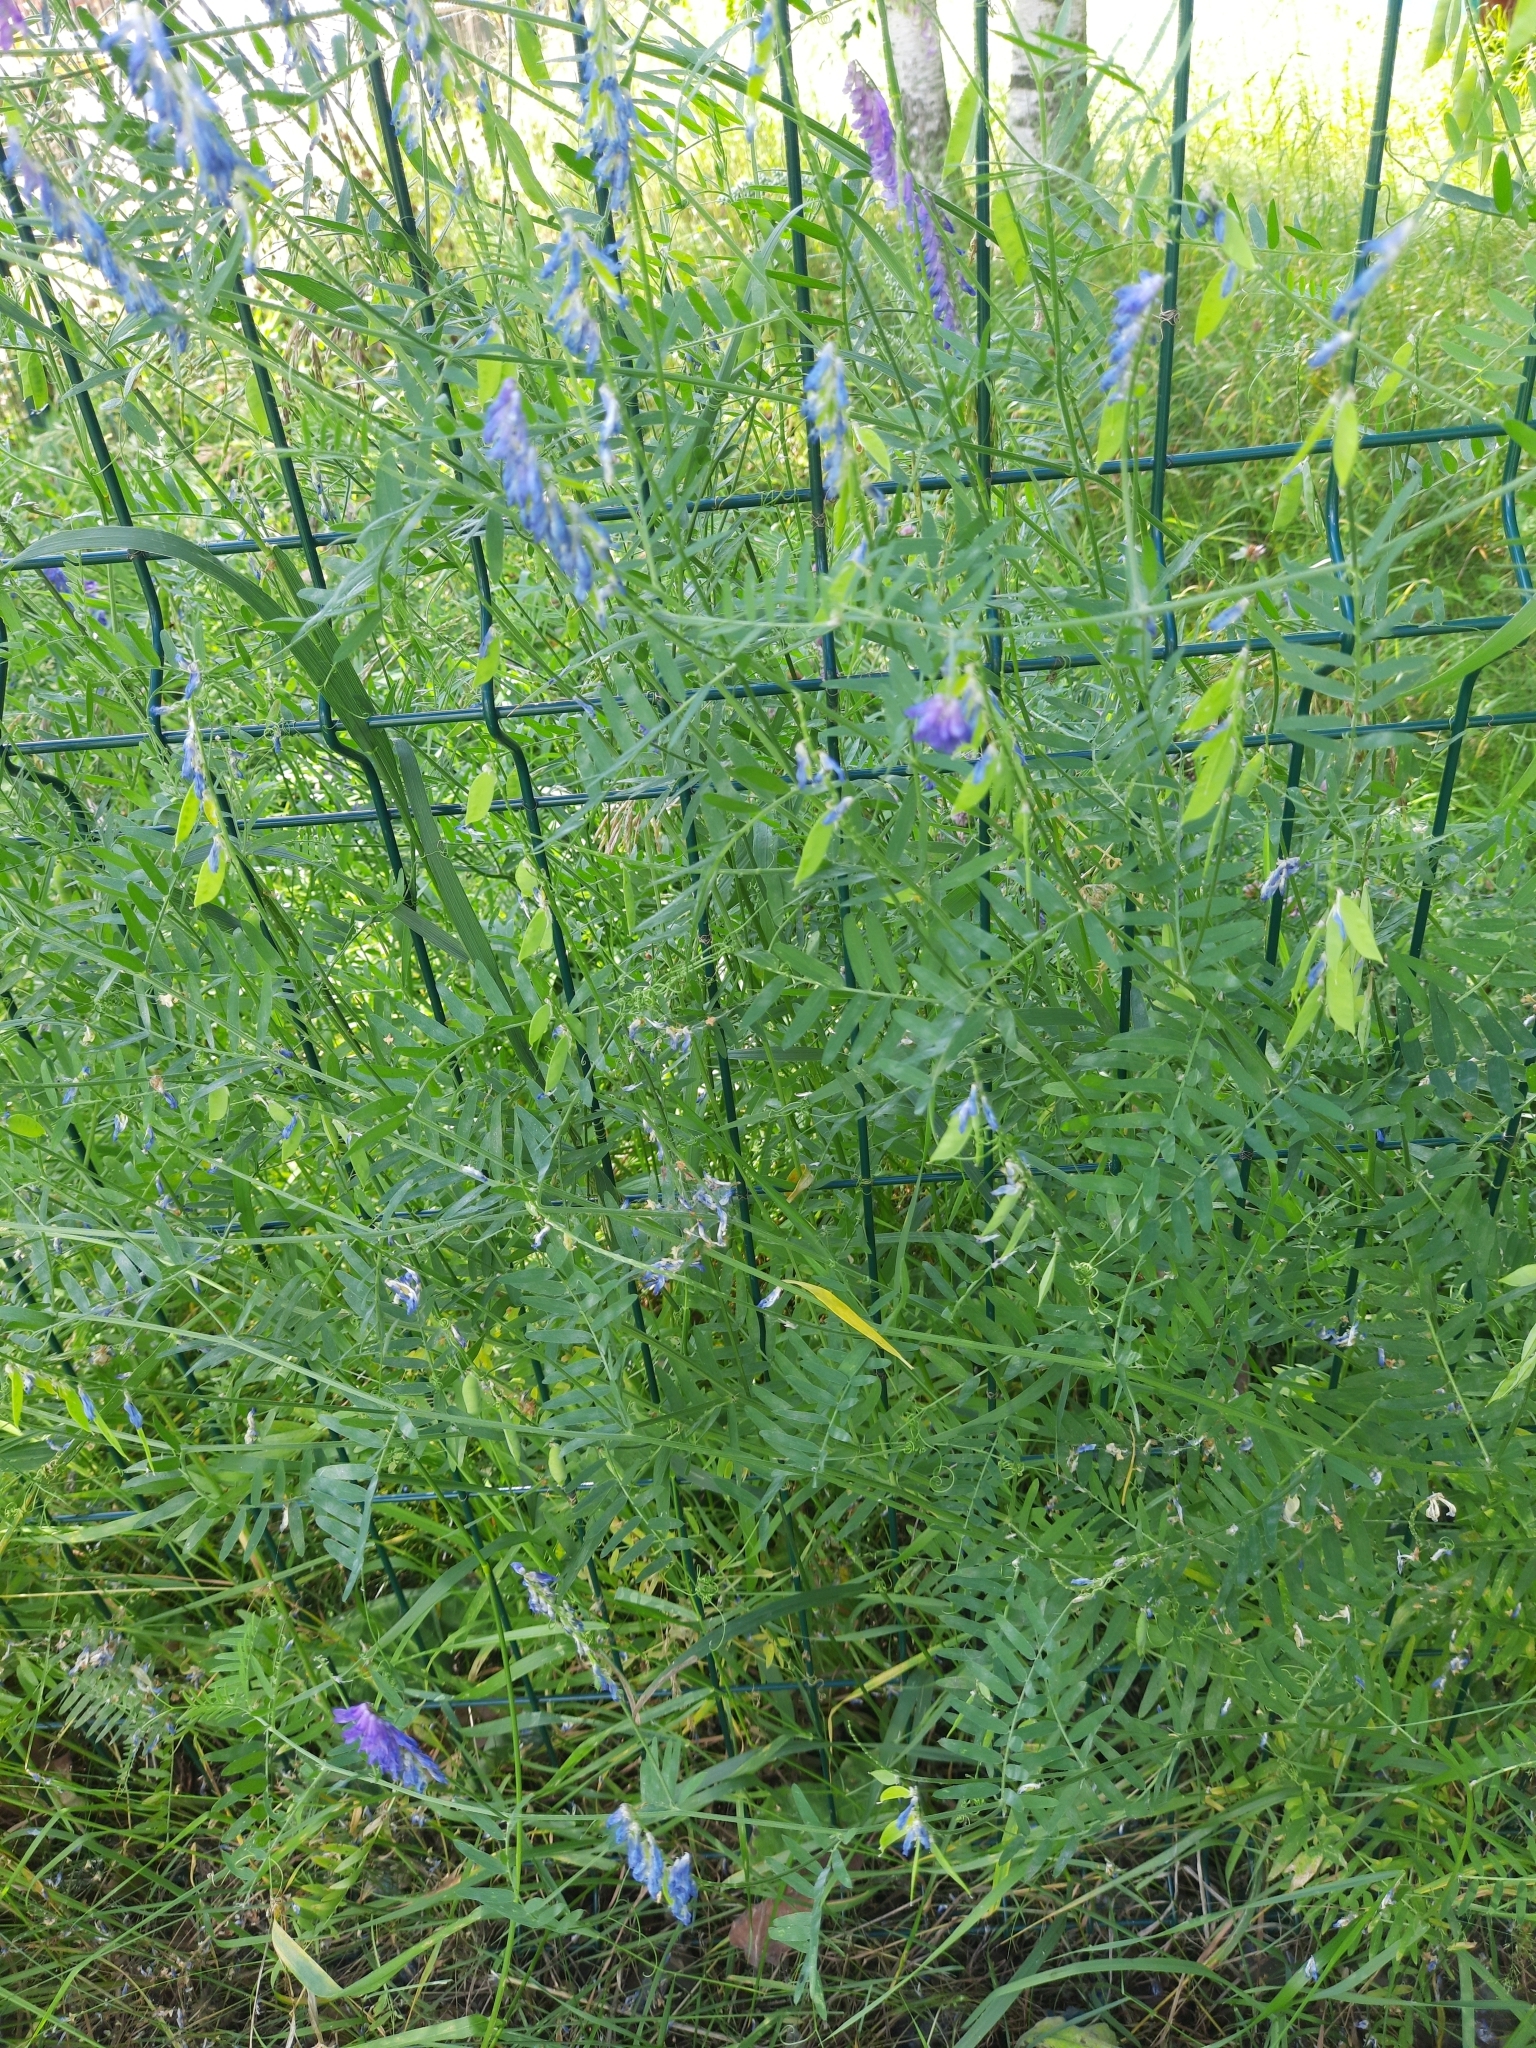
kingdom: Plantae
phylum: Tracheophyta
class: Magnoliopsida
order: Fabales
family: Fabaceae
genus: Vicia
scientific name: Vicia cracca
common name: Bird vetch
